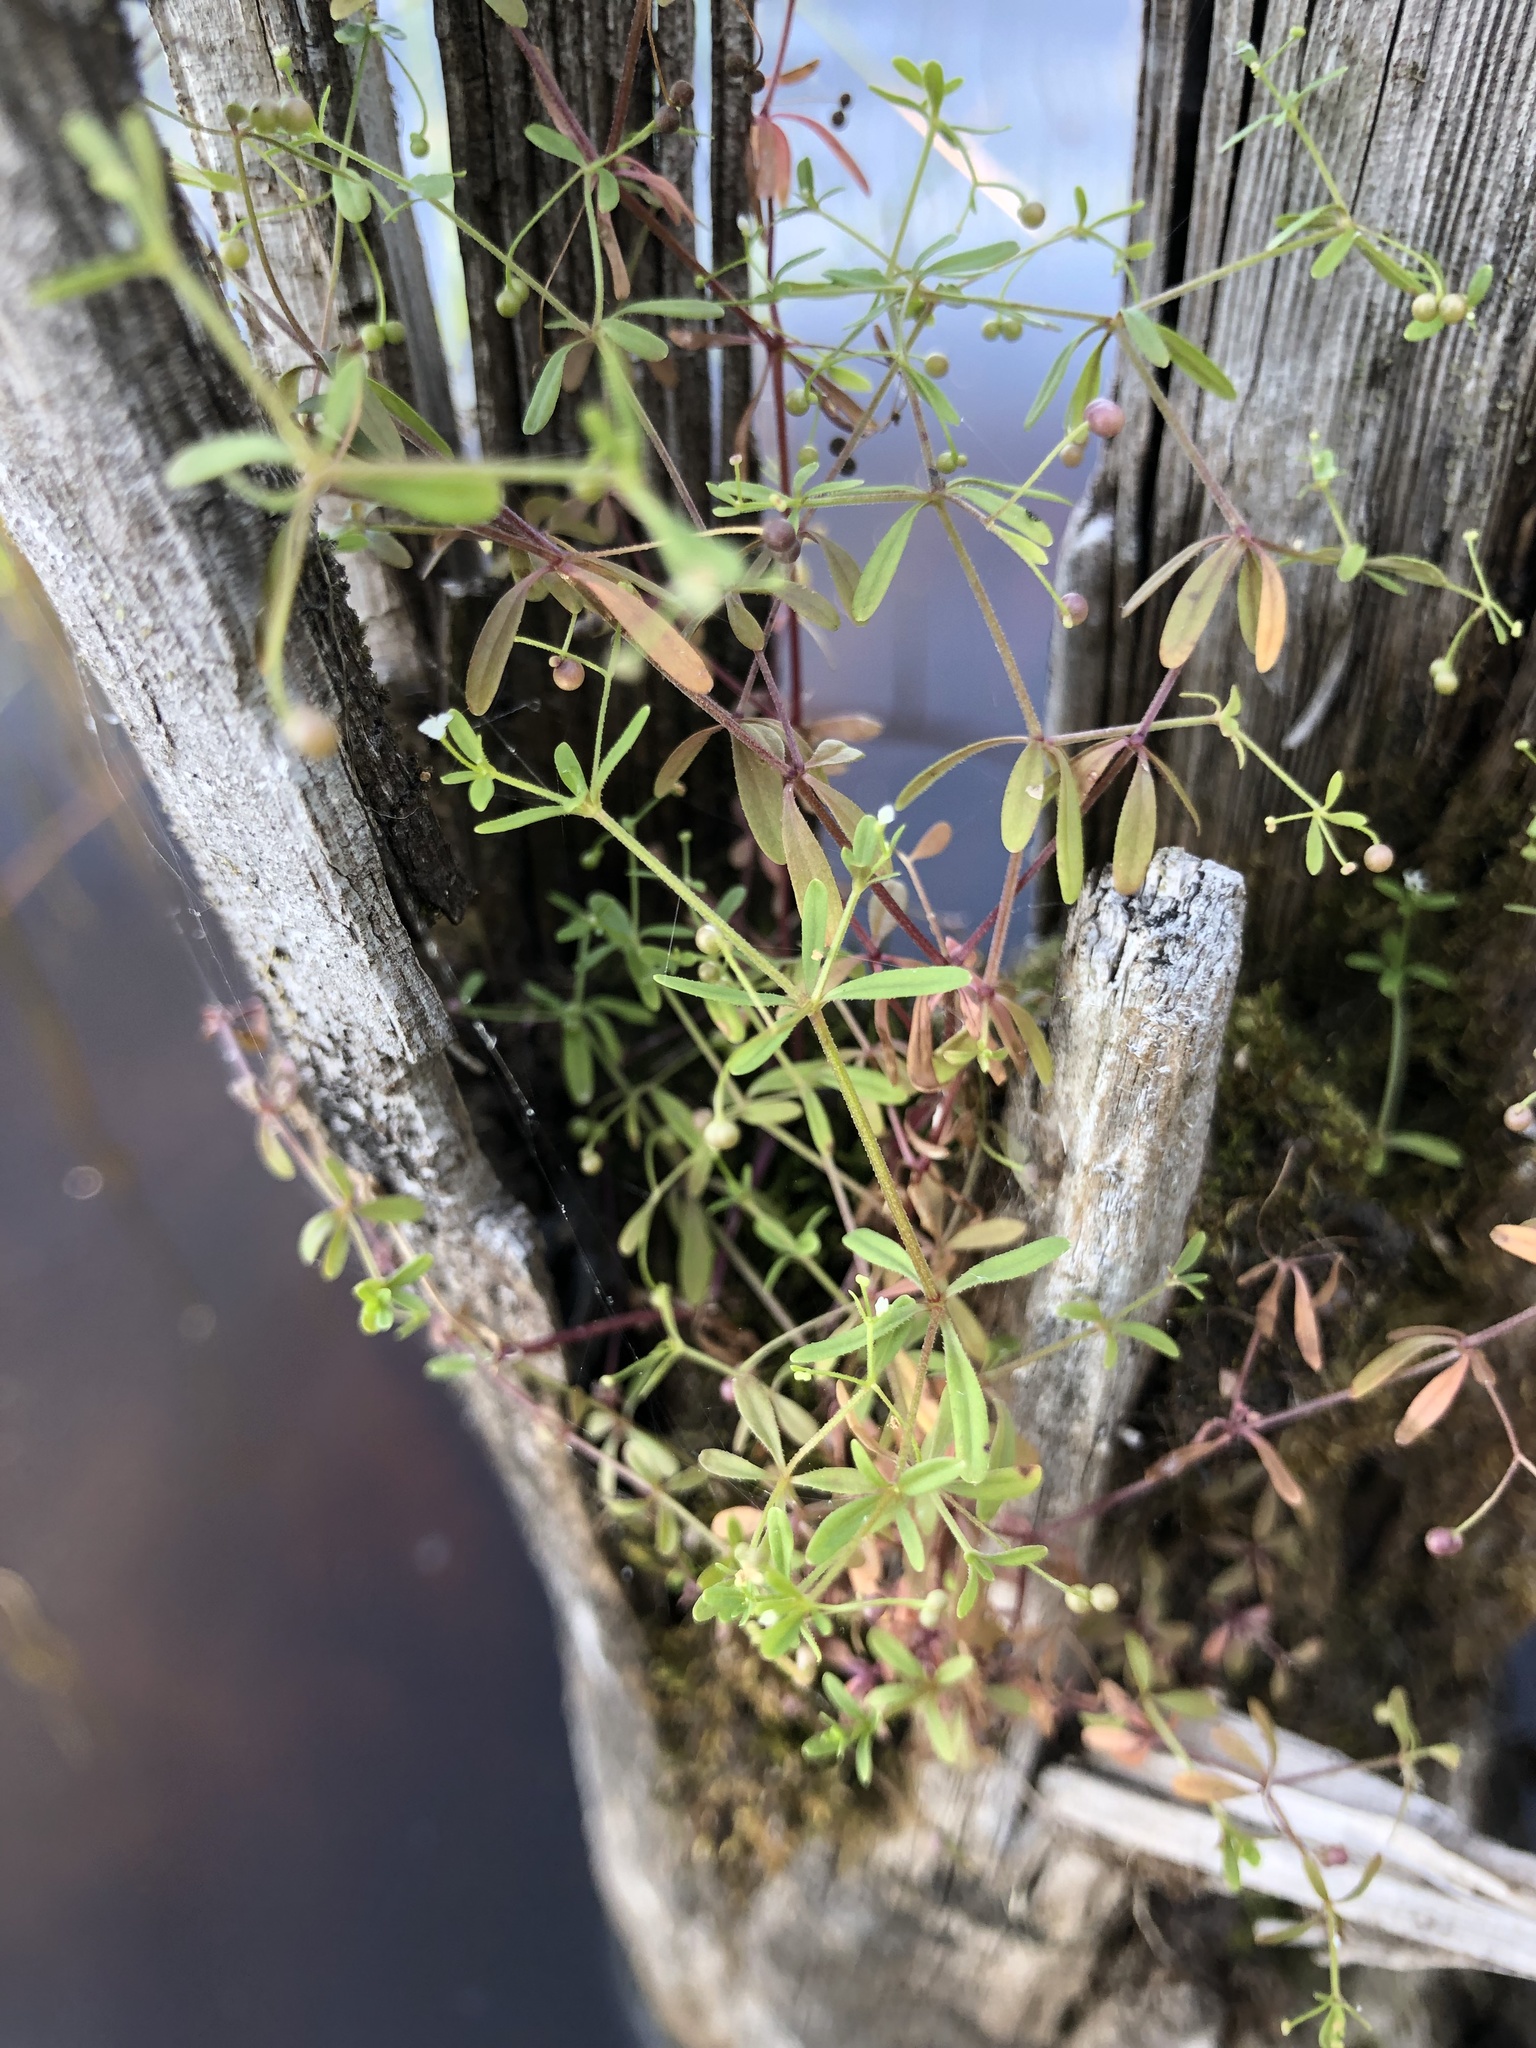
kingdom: Plantae
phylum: Tracheophyta
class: Magnoliopsida
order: Gentianales
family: Rubiaceae
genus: Galium
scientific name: Galium trifidum
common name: Small bedstraw
